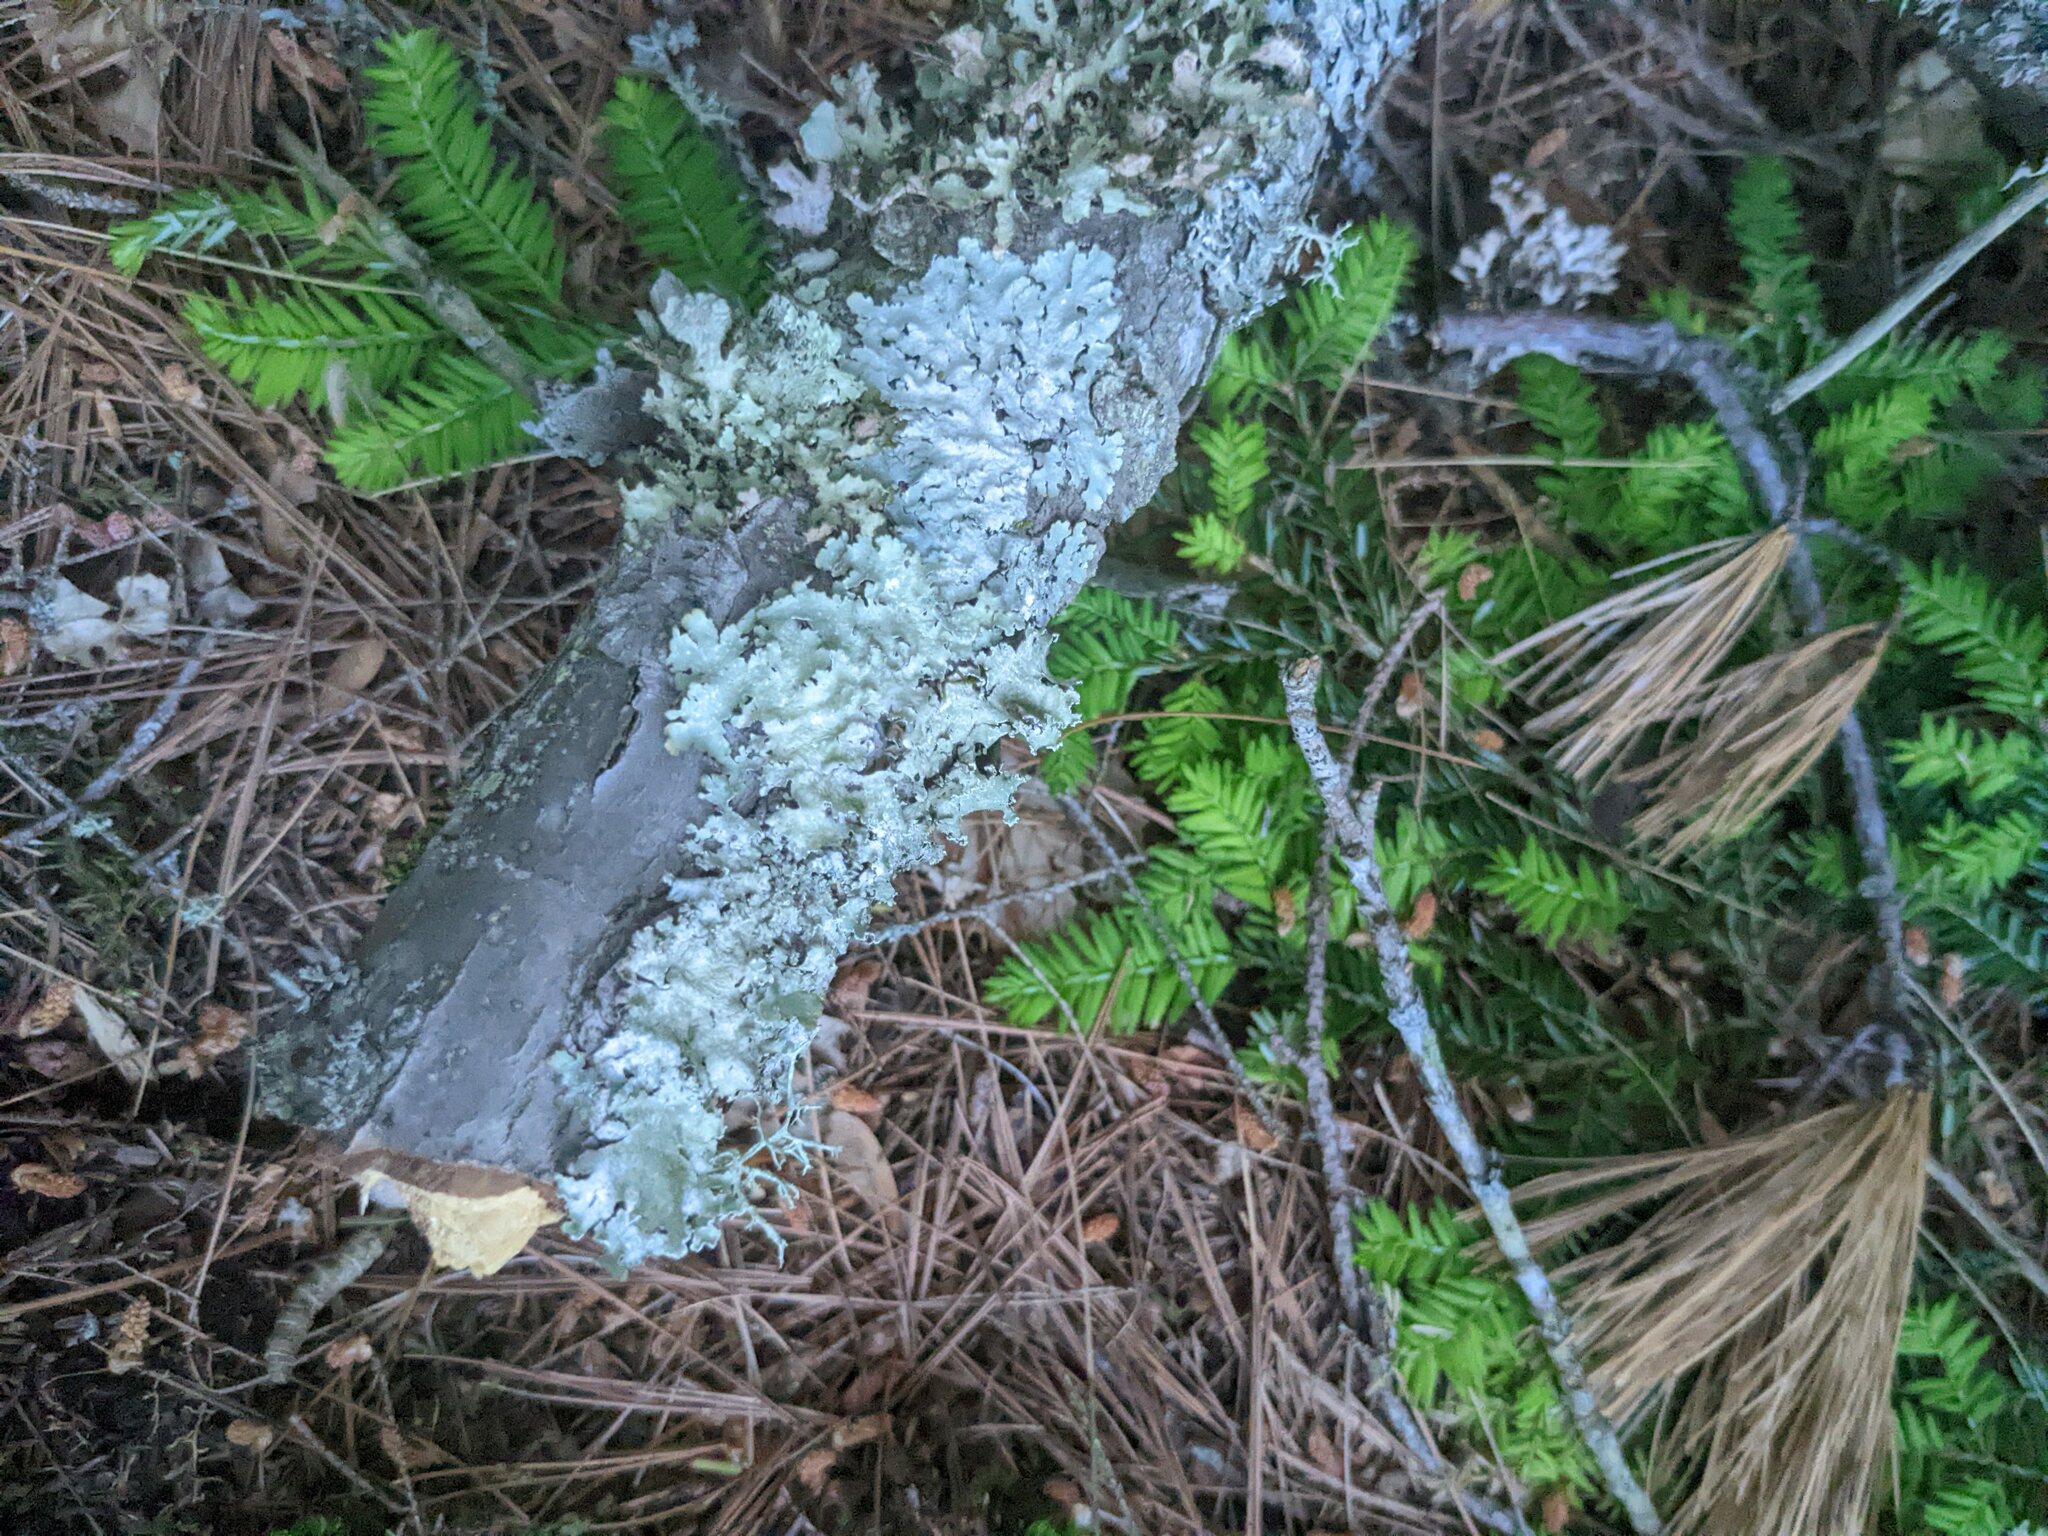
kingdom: Plantae
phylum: Tracheophyta
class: Pinopsida
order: Pinales
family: Pinaceae
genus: Tsuga
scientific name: Tsuga canadensis
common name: Eastern hemlock
